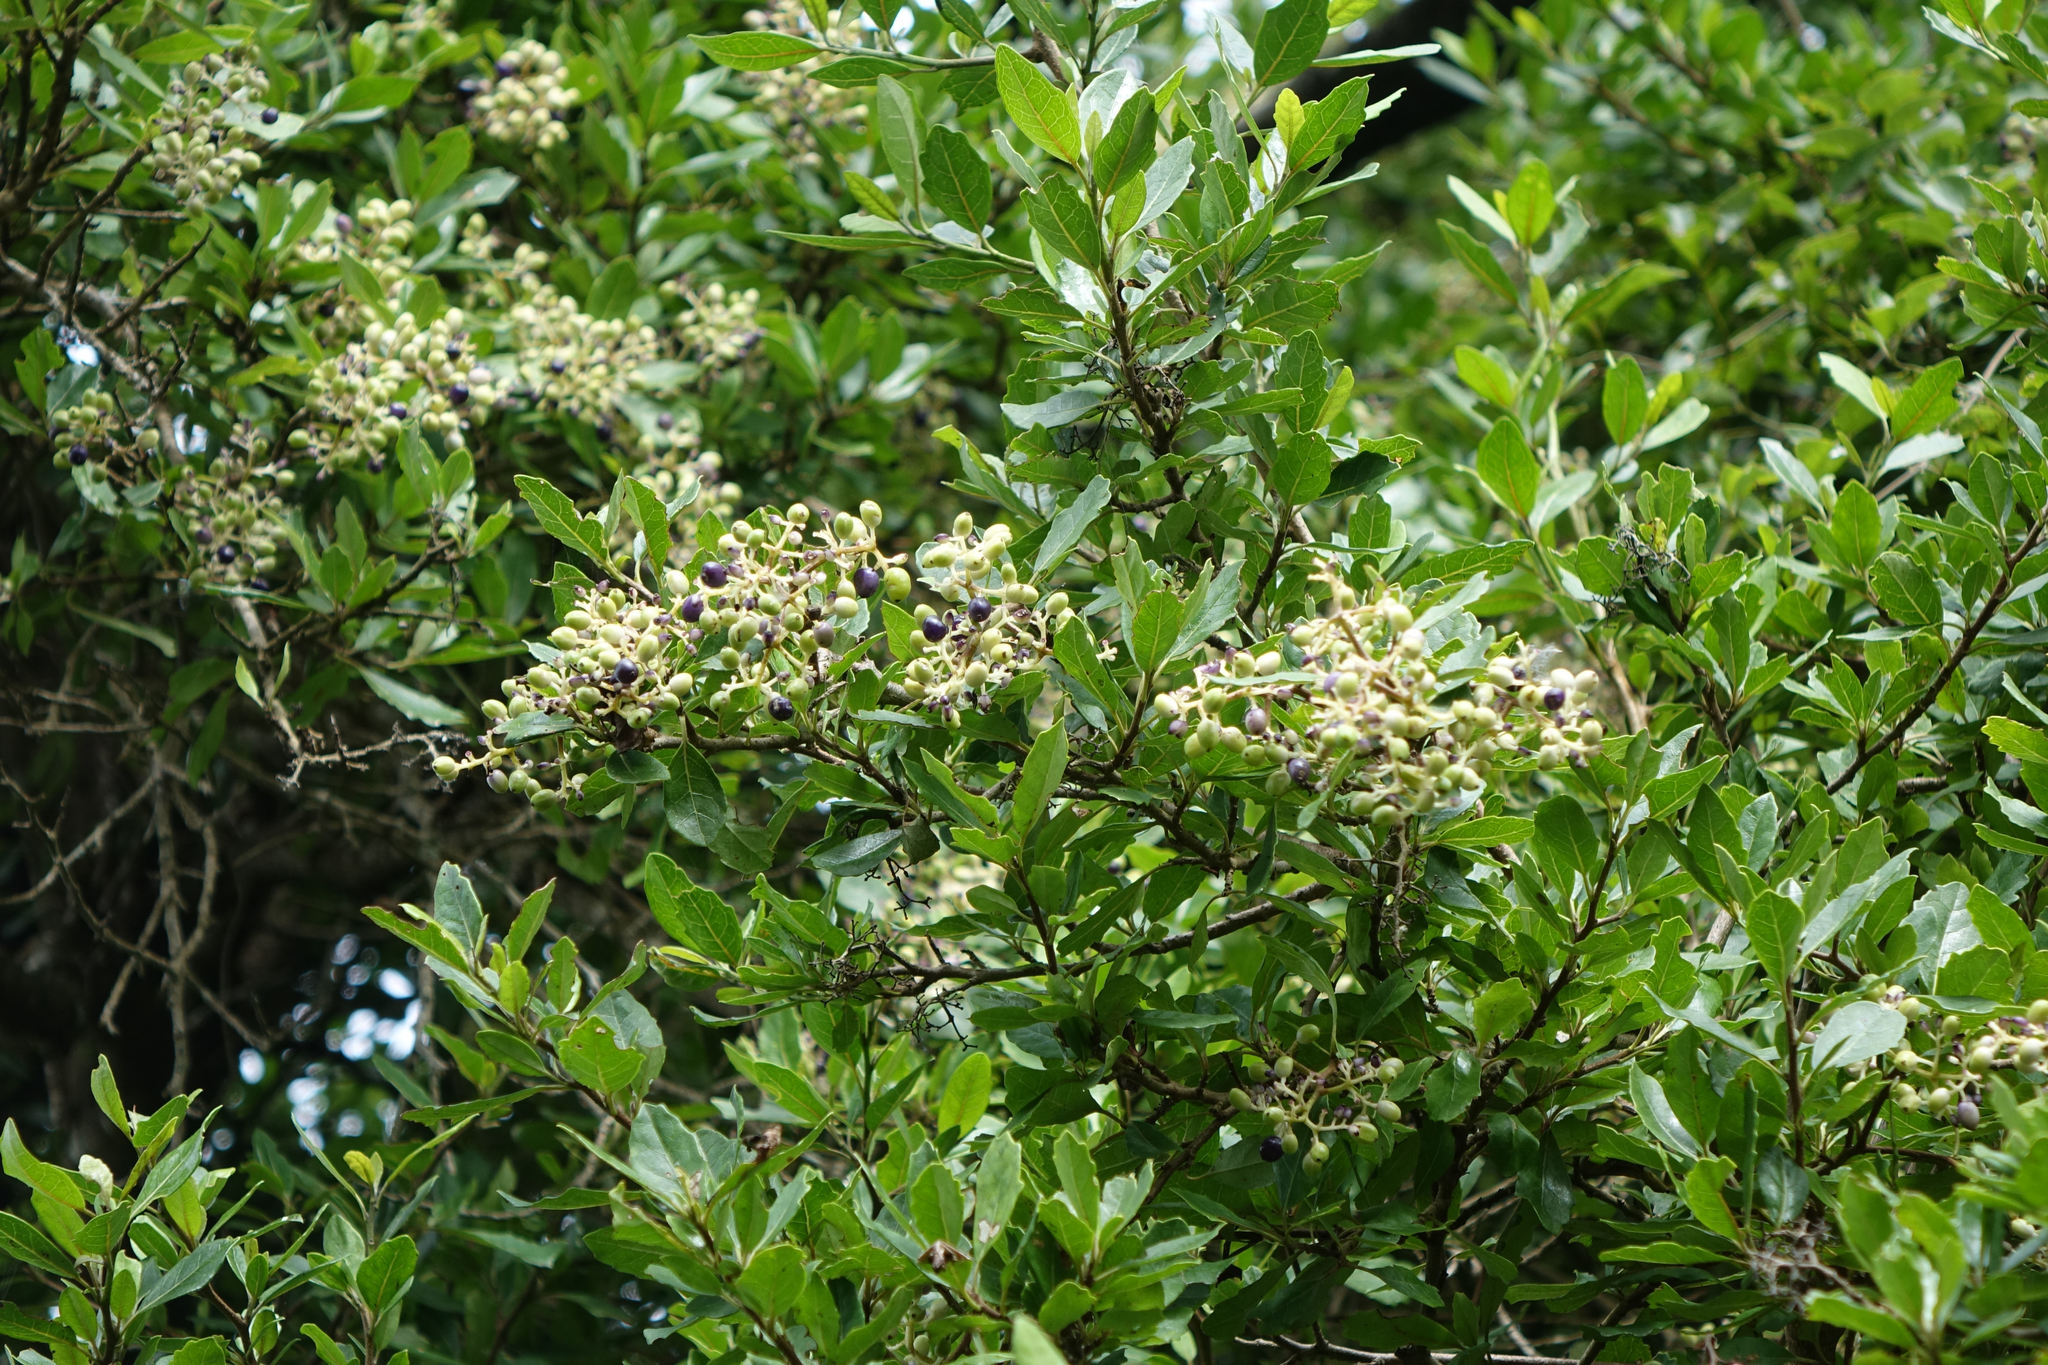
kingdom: Plantae
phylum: Tracheophyta
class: Magnoliopsida
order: Apiales
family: Pennantiaceae
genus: Pennantia
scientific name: Pennantia corymbosa
